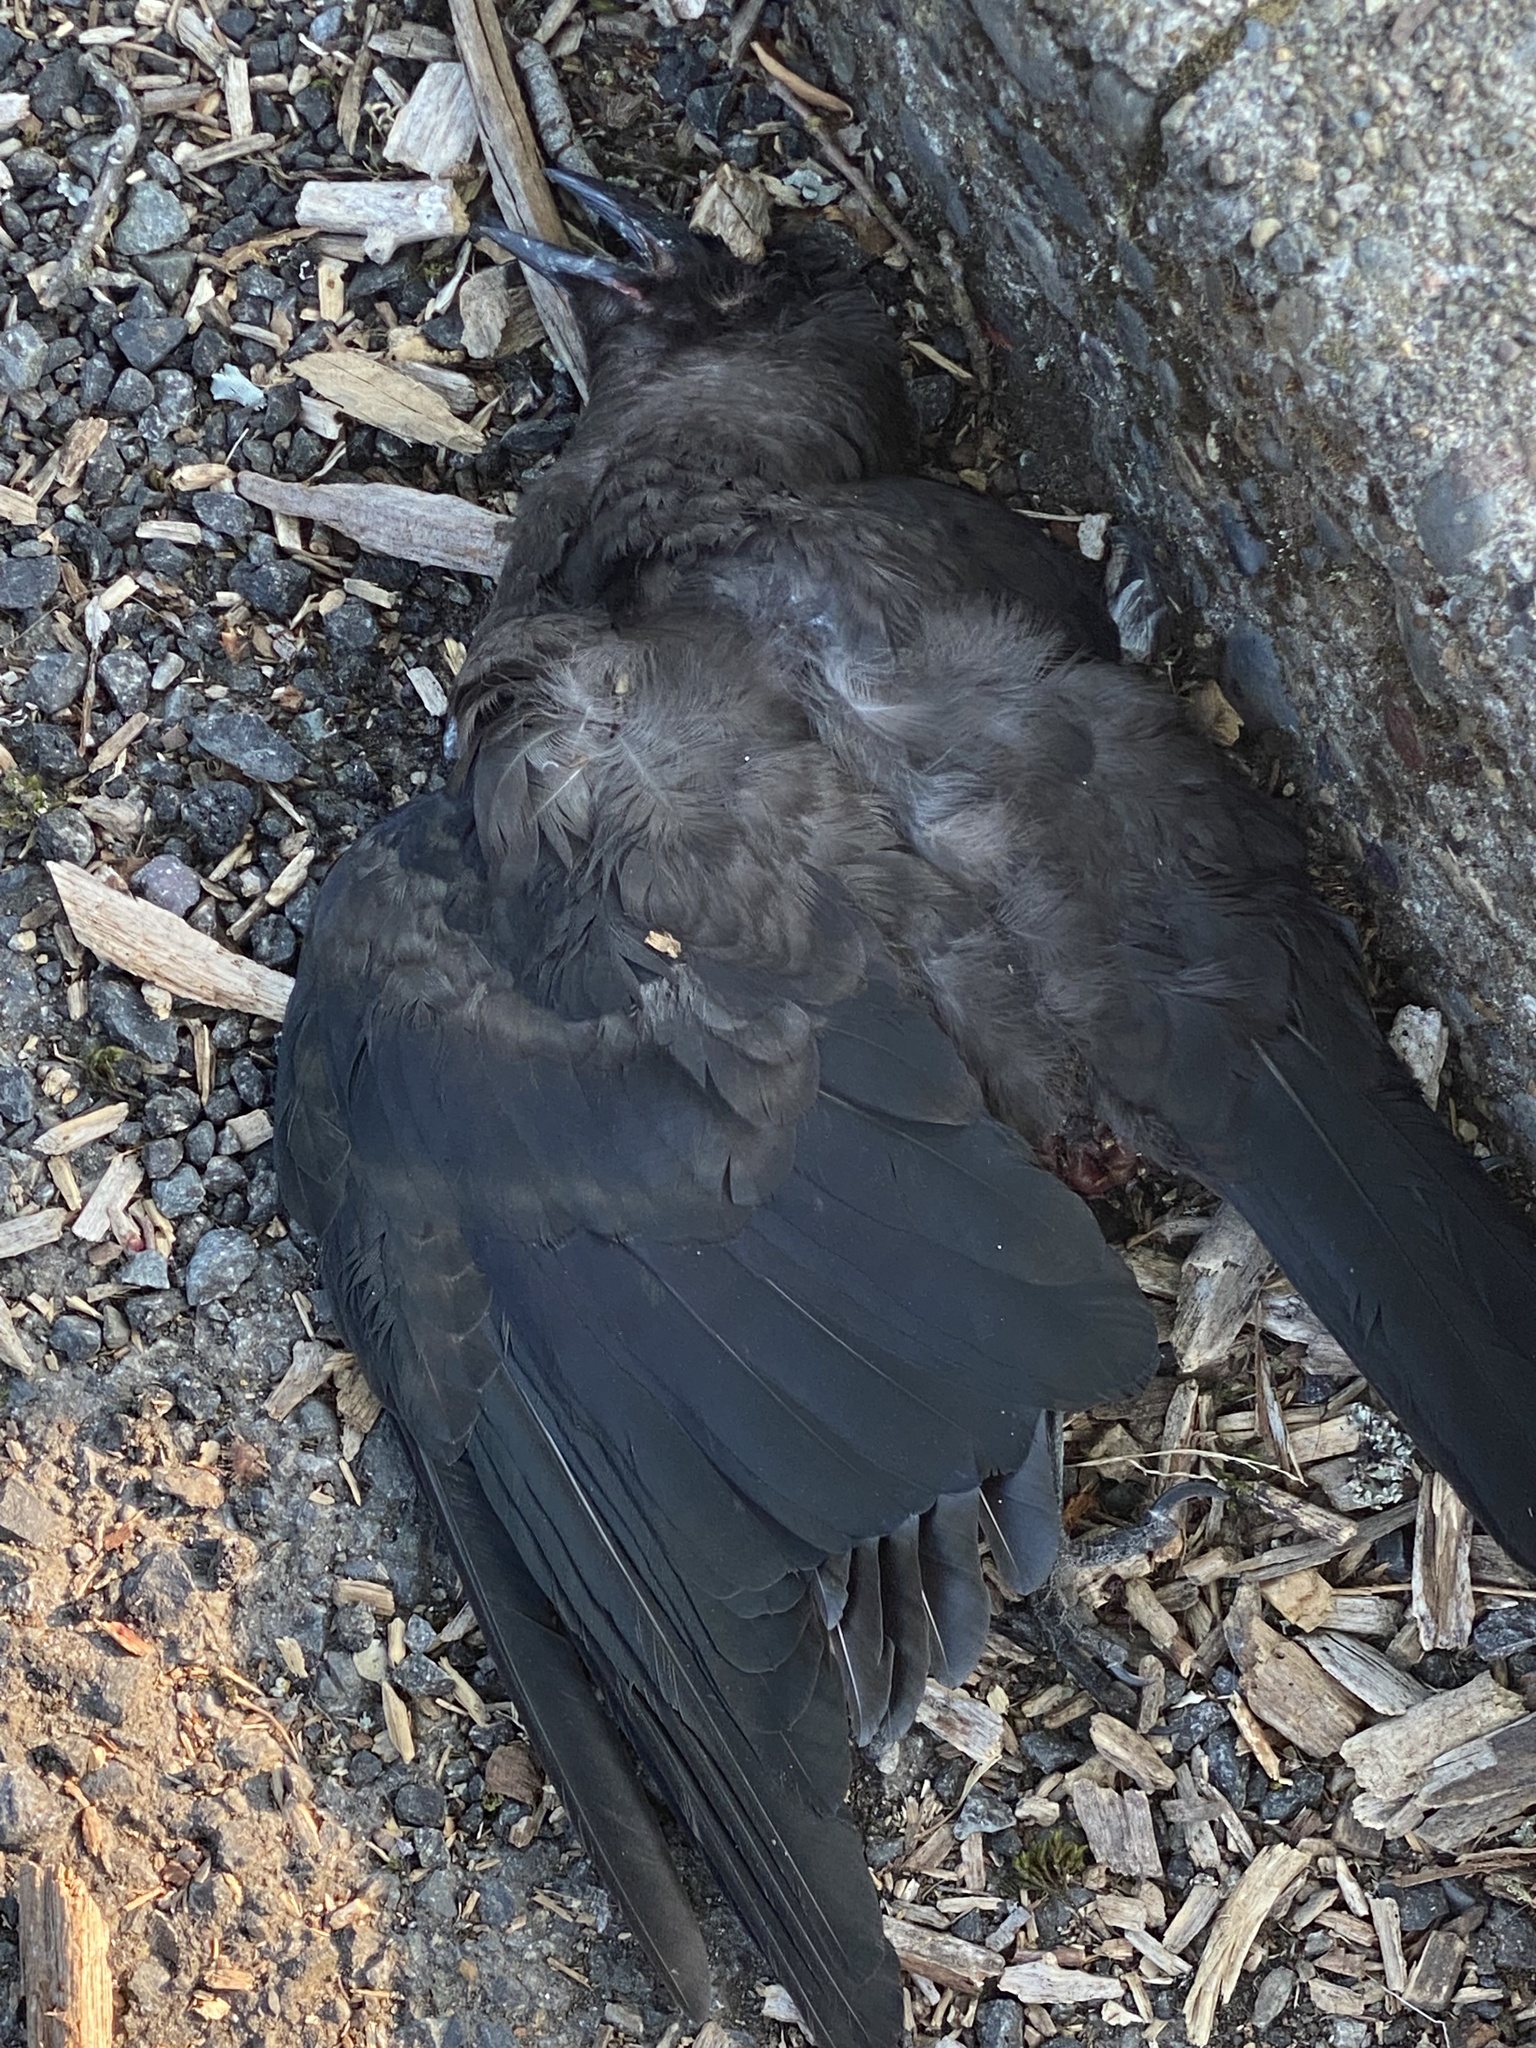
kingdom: Animalia
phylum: Chordata
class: Aves
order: Passeriformes
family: Corvidae
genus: Corvus
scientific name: Corvus brachyrhynchos
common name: American crow
